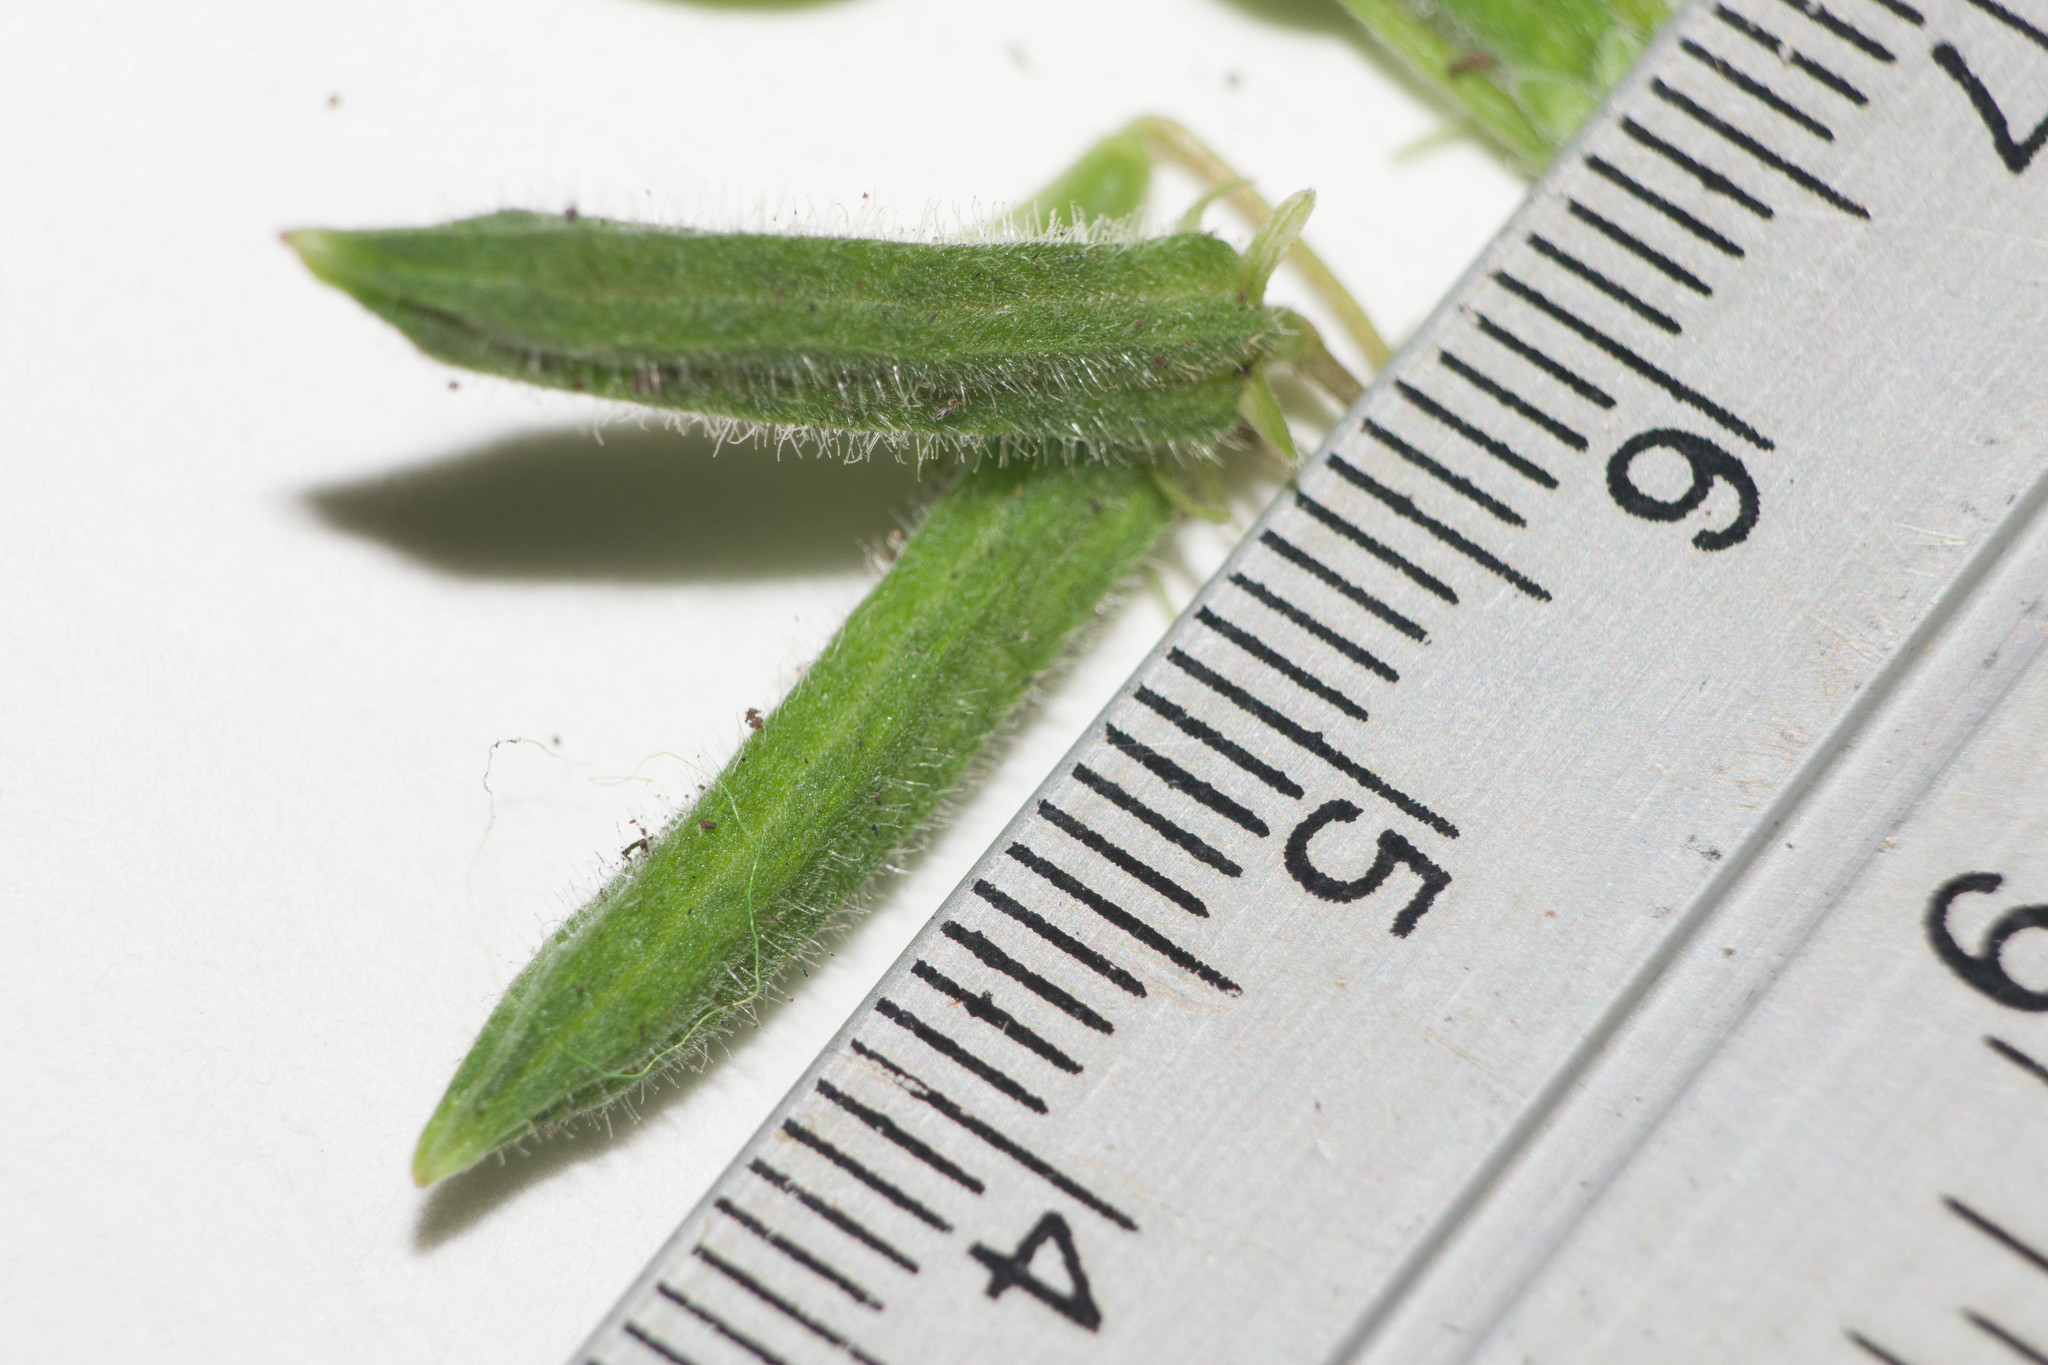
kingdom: Plantae
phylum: Tracheophyta
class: Magnoliopsida
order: Oxalidales
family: Oxalidaceae
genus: Oxalis
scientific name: Oxalis corniculata
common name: Procumbent yellow-sorrel
